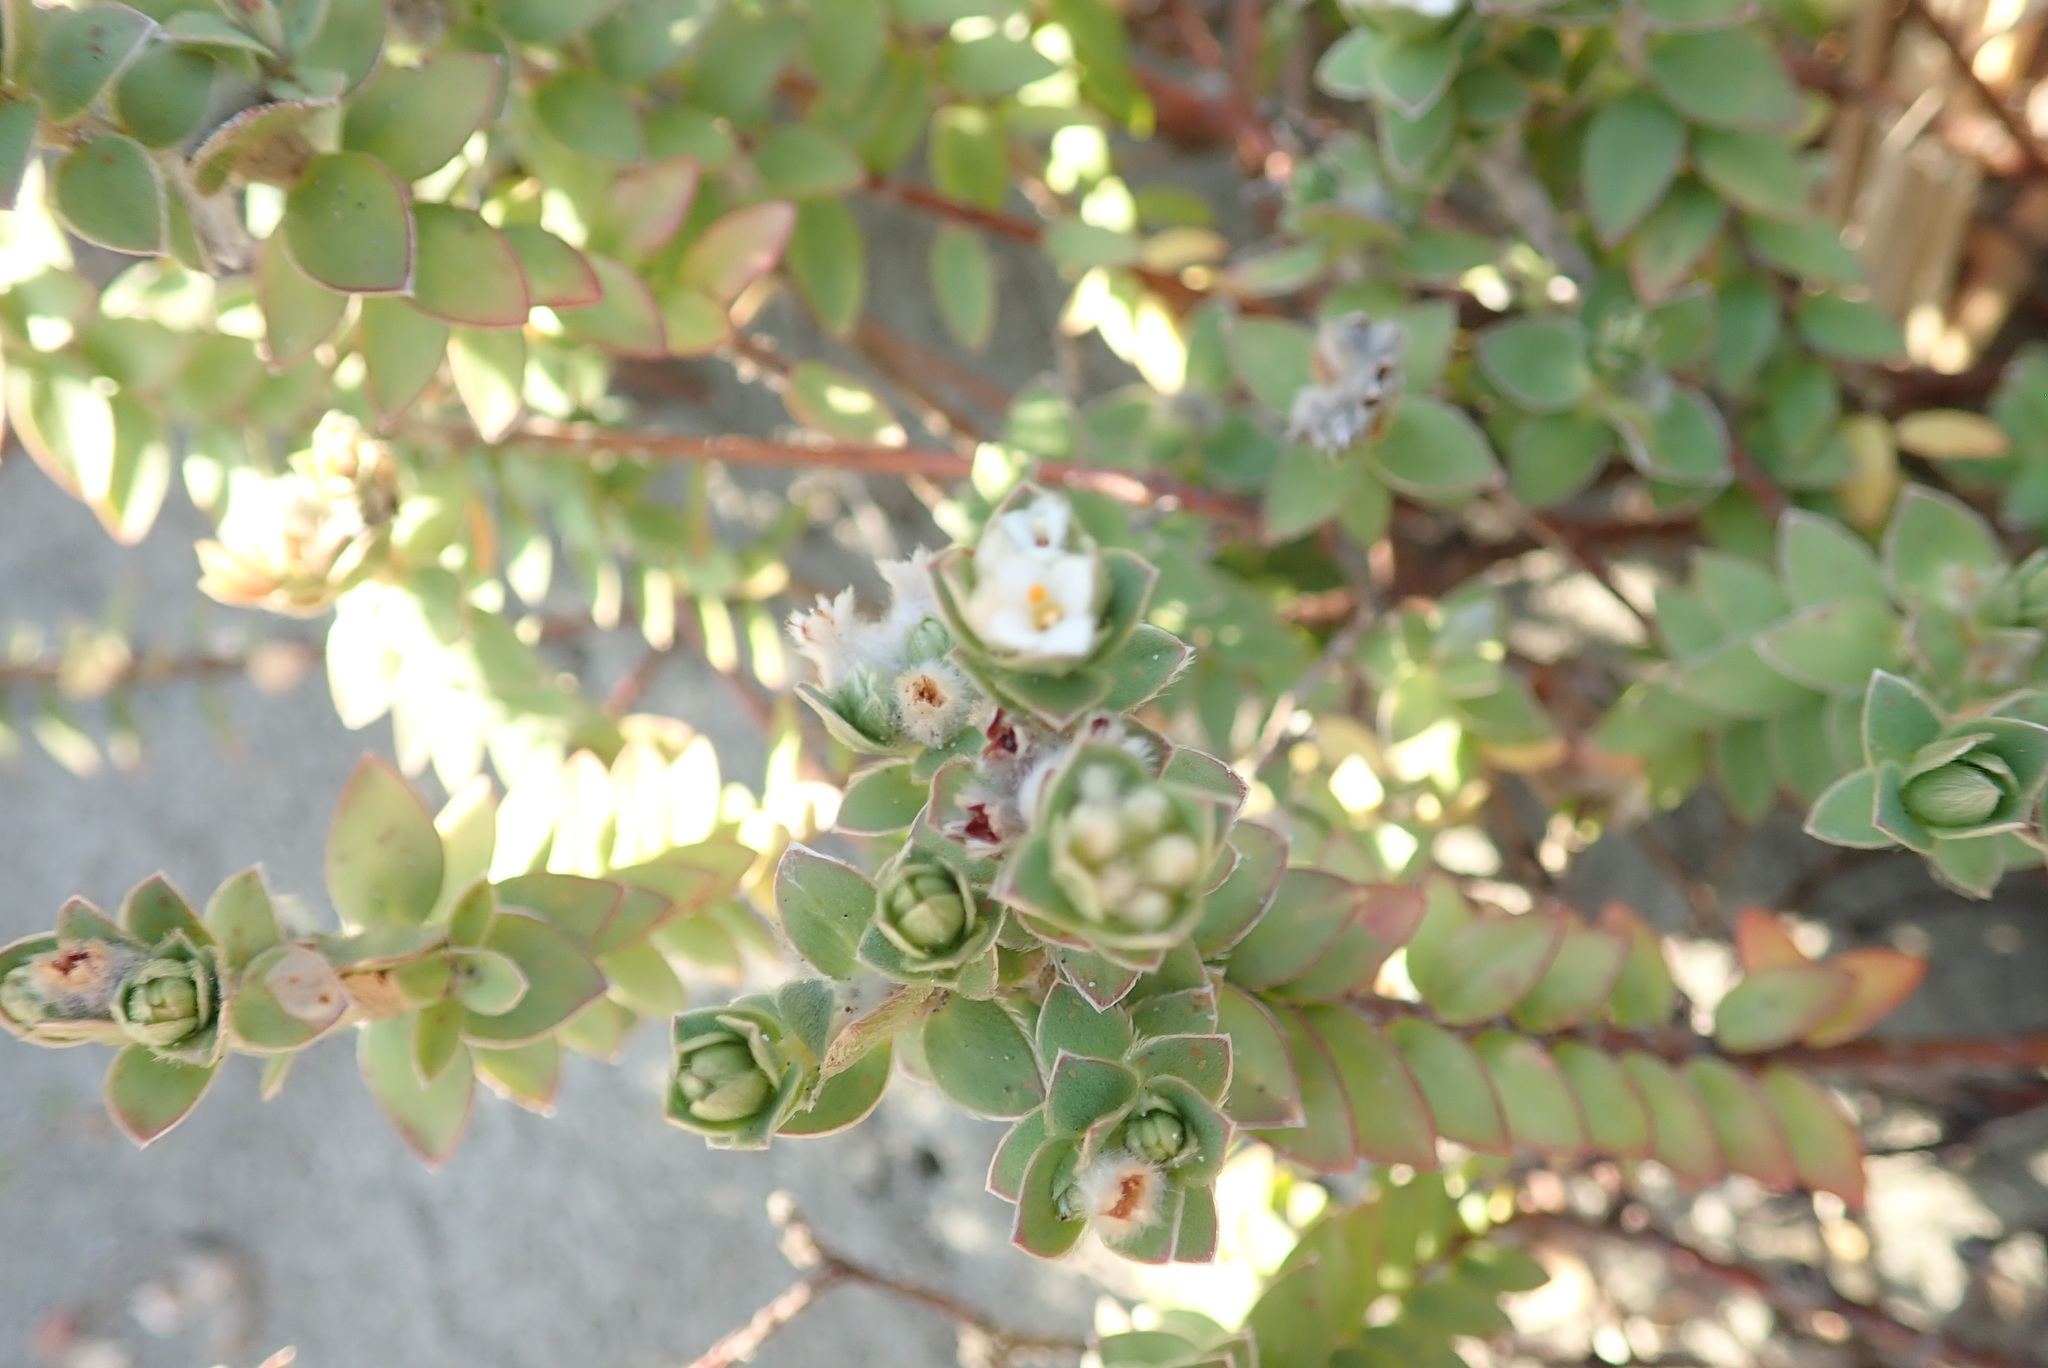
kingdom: Plantae
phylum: Tracheophyta
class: Magnoliopsida
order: Malvales
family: Thymelaeaceae
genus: Pimelea
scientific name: Pimelea villosa
